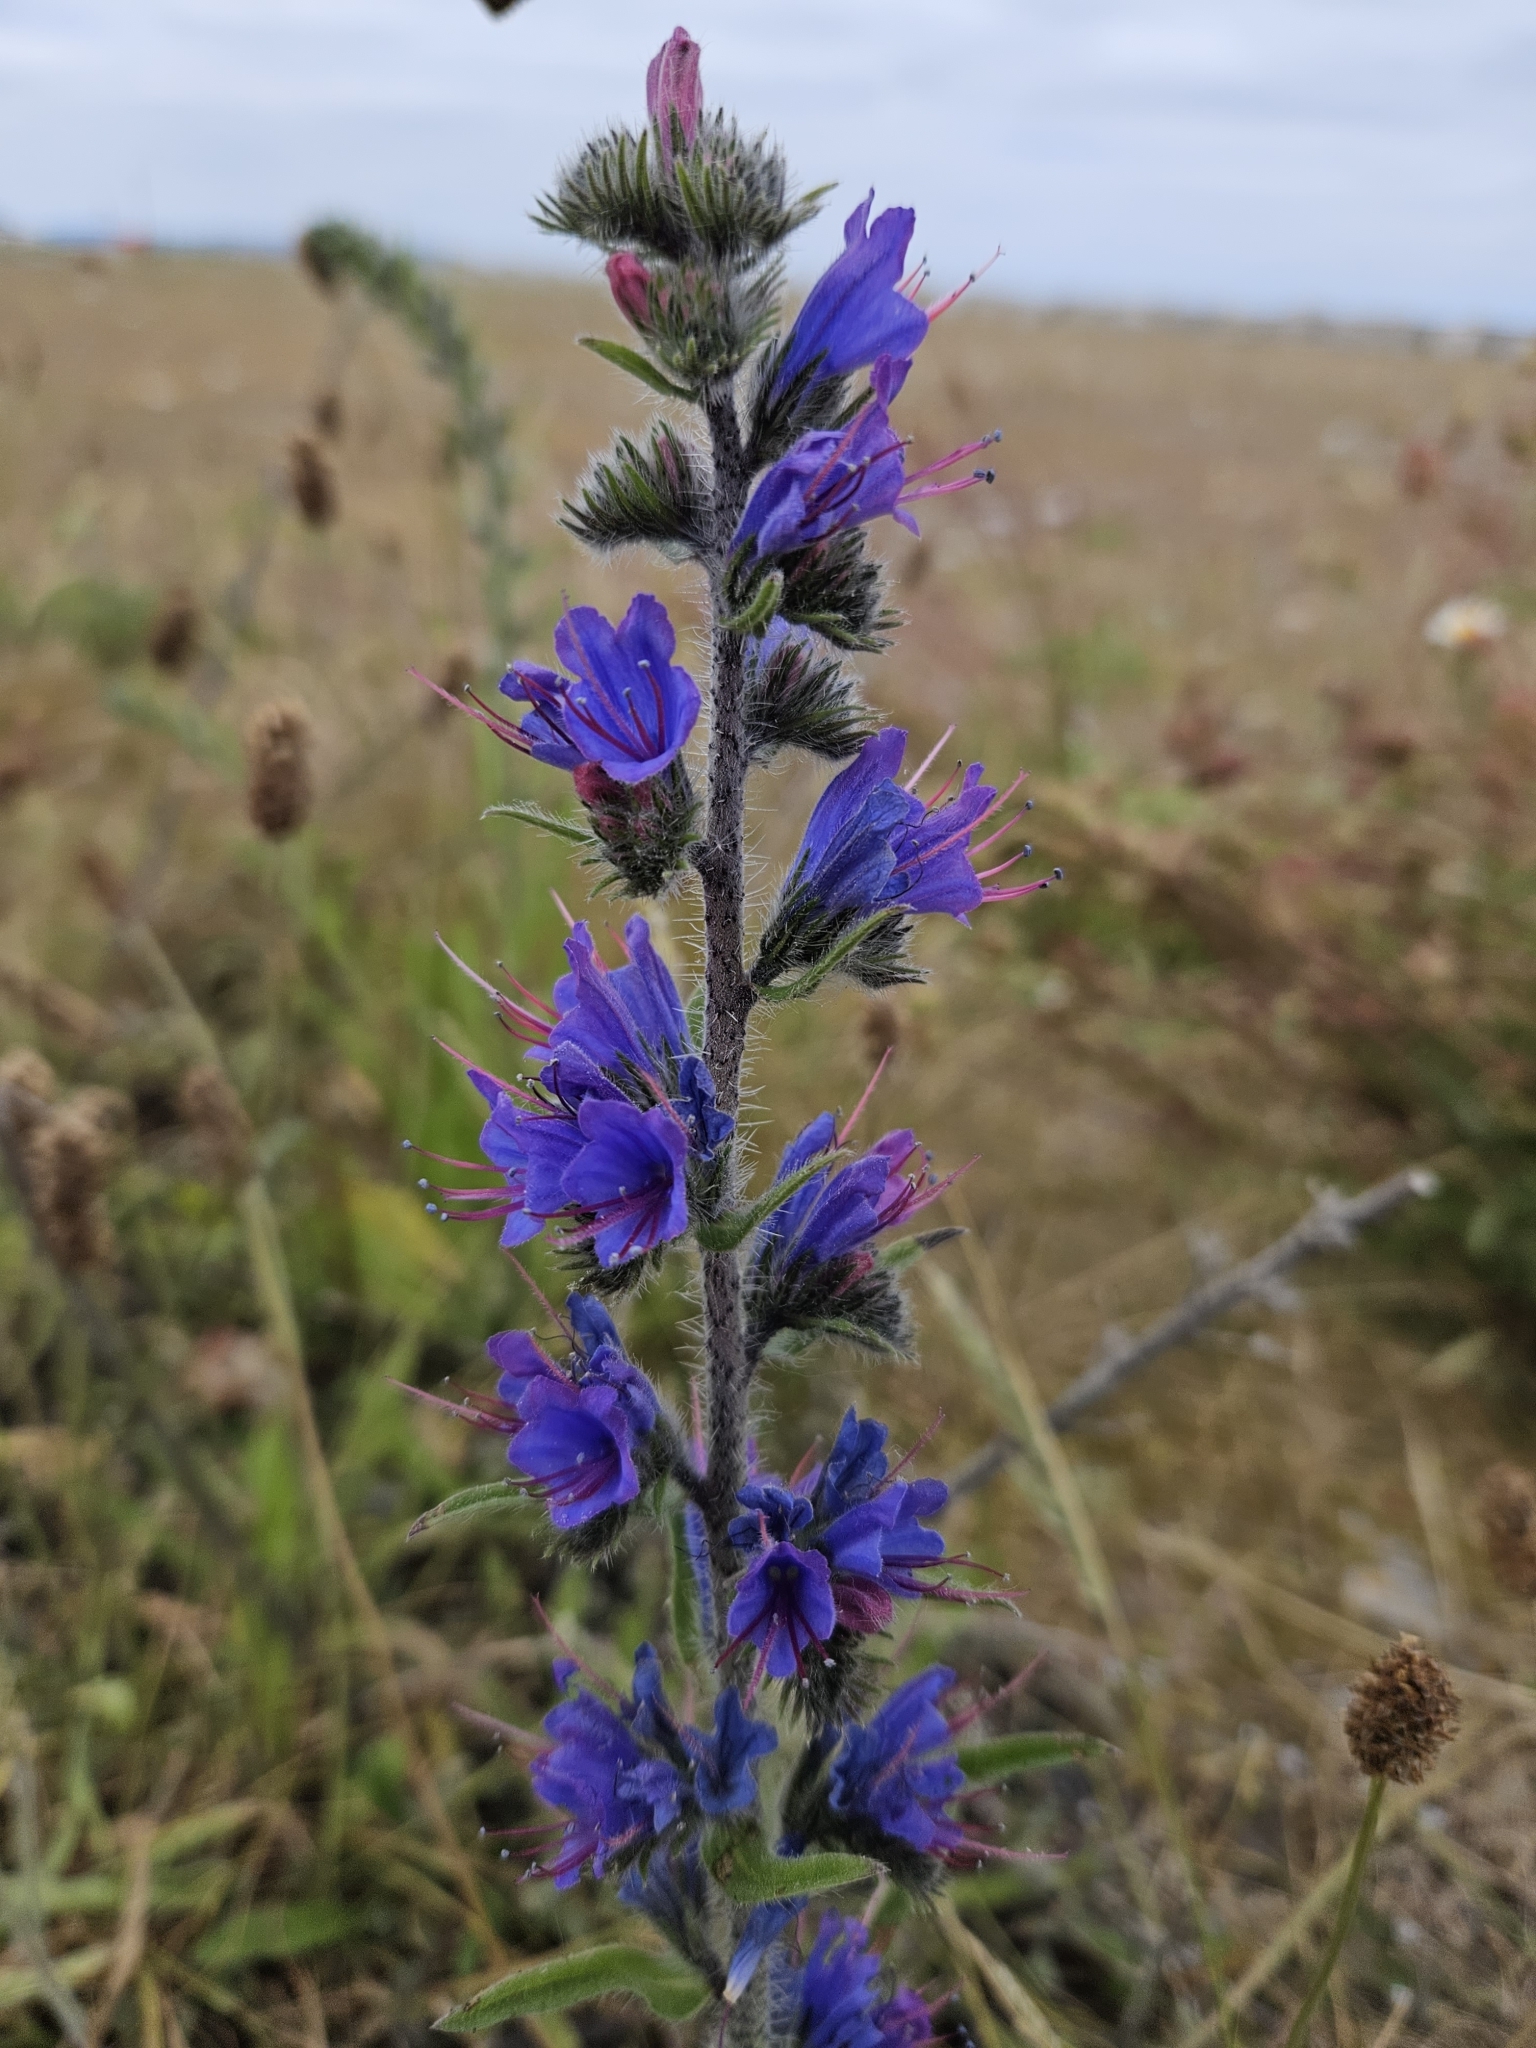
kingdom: Plantae
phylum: Tracheophyta
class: Magnoliopsida
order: Boraginales
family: Boraginaceae
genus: Echium
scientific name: Echium vulgare
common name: Common viper's bugloss
